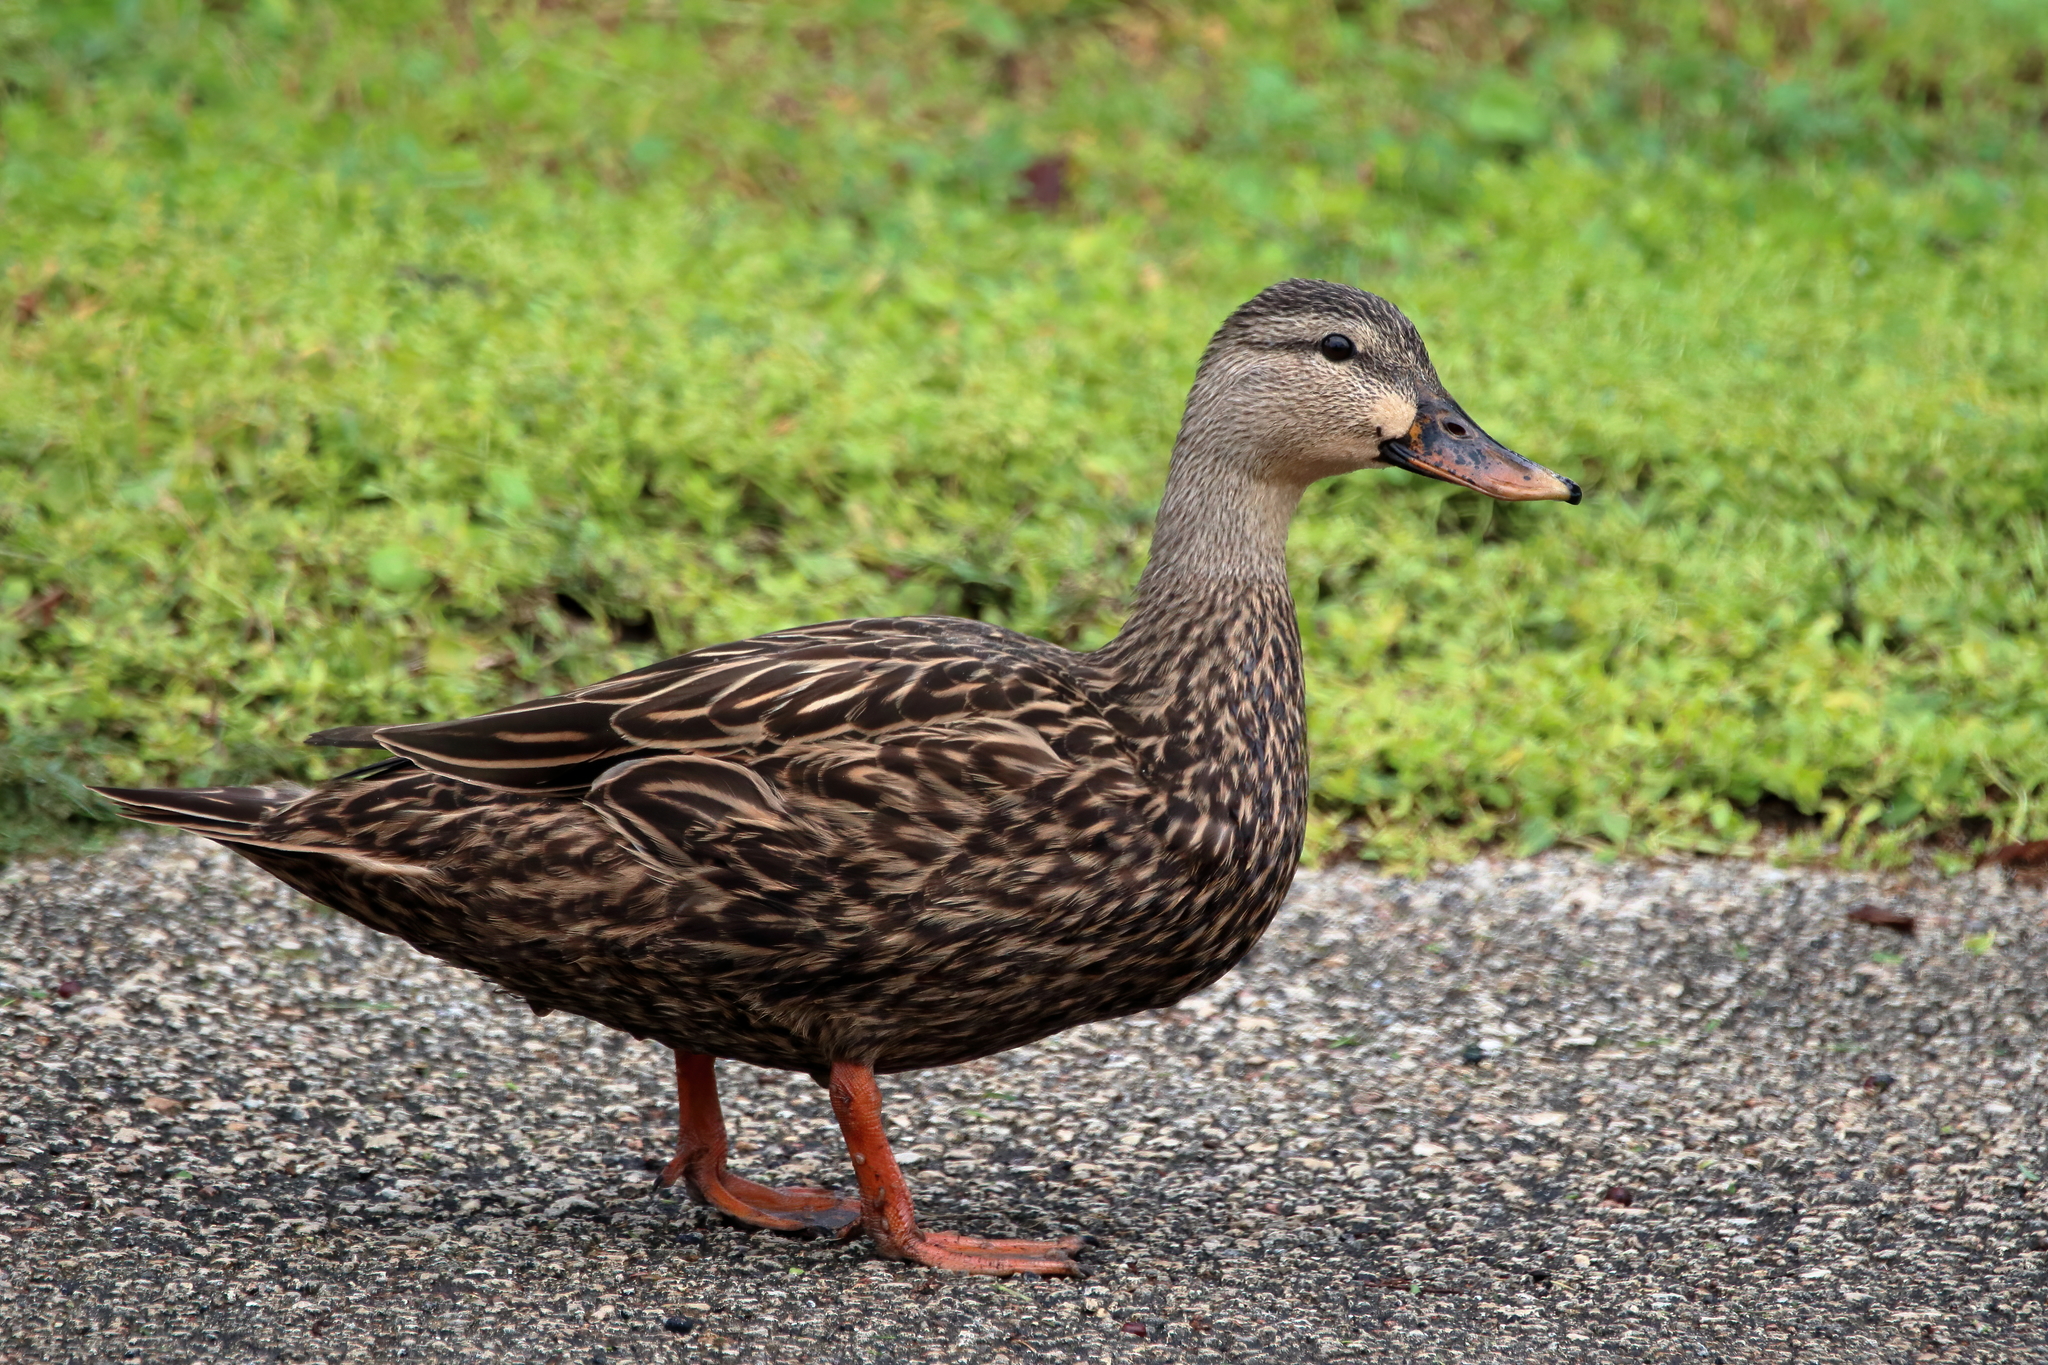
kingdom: Animalia
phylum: Chordata
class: Aves
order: Anseriformes
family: Anatidae
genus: Anas
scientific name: Anas fulvigula
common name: Mottled duck
